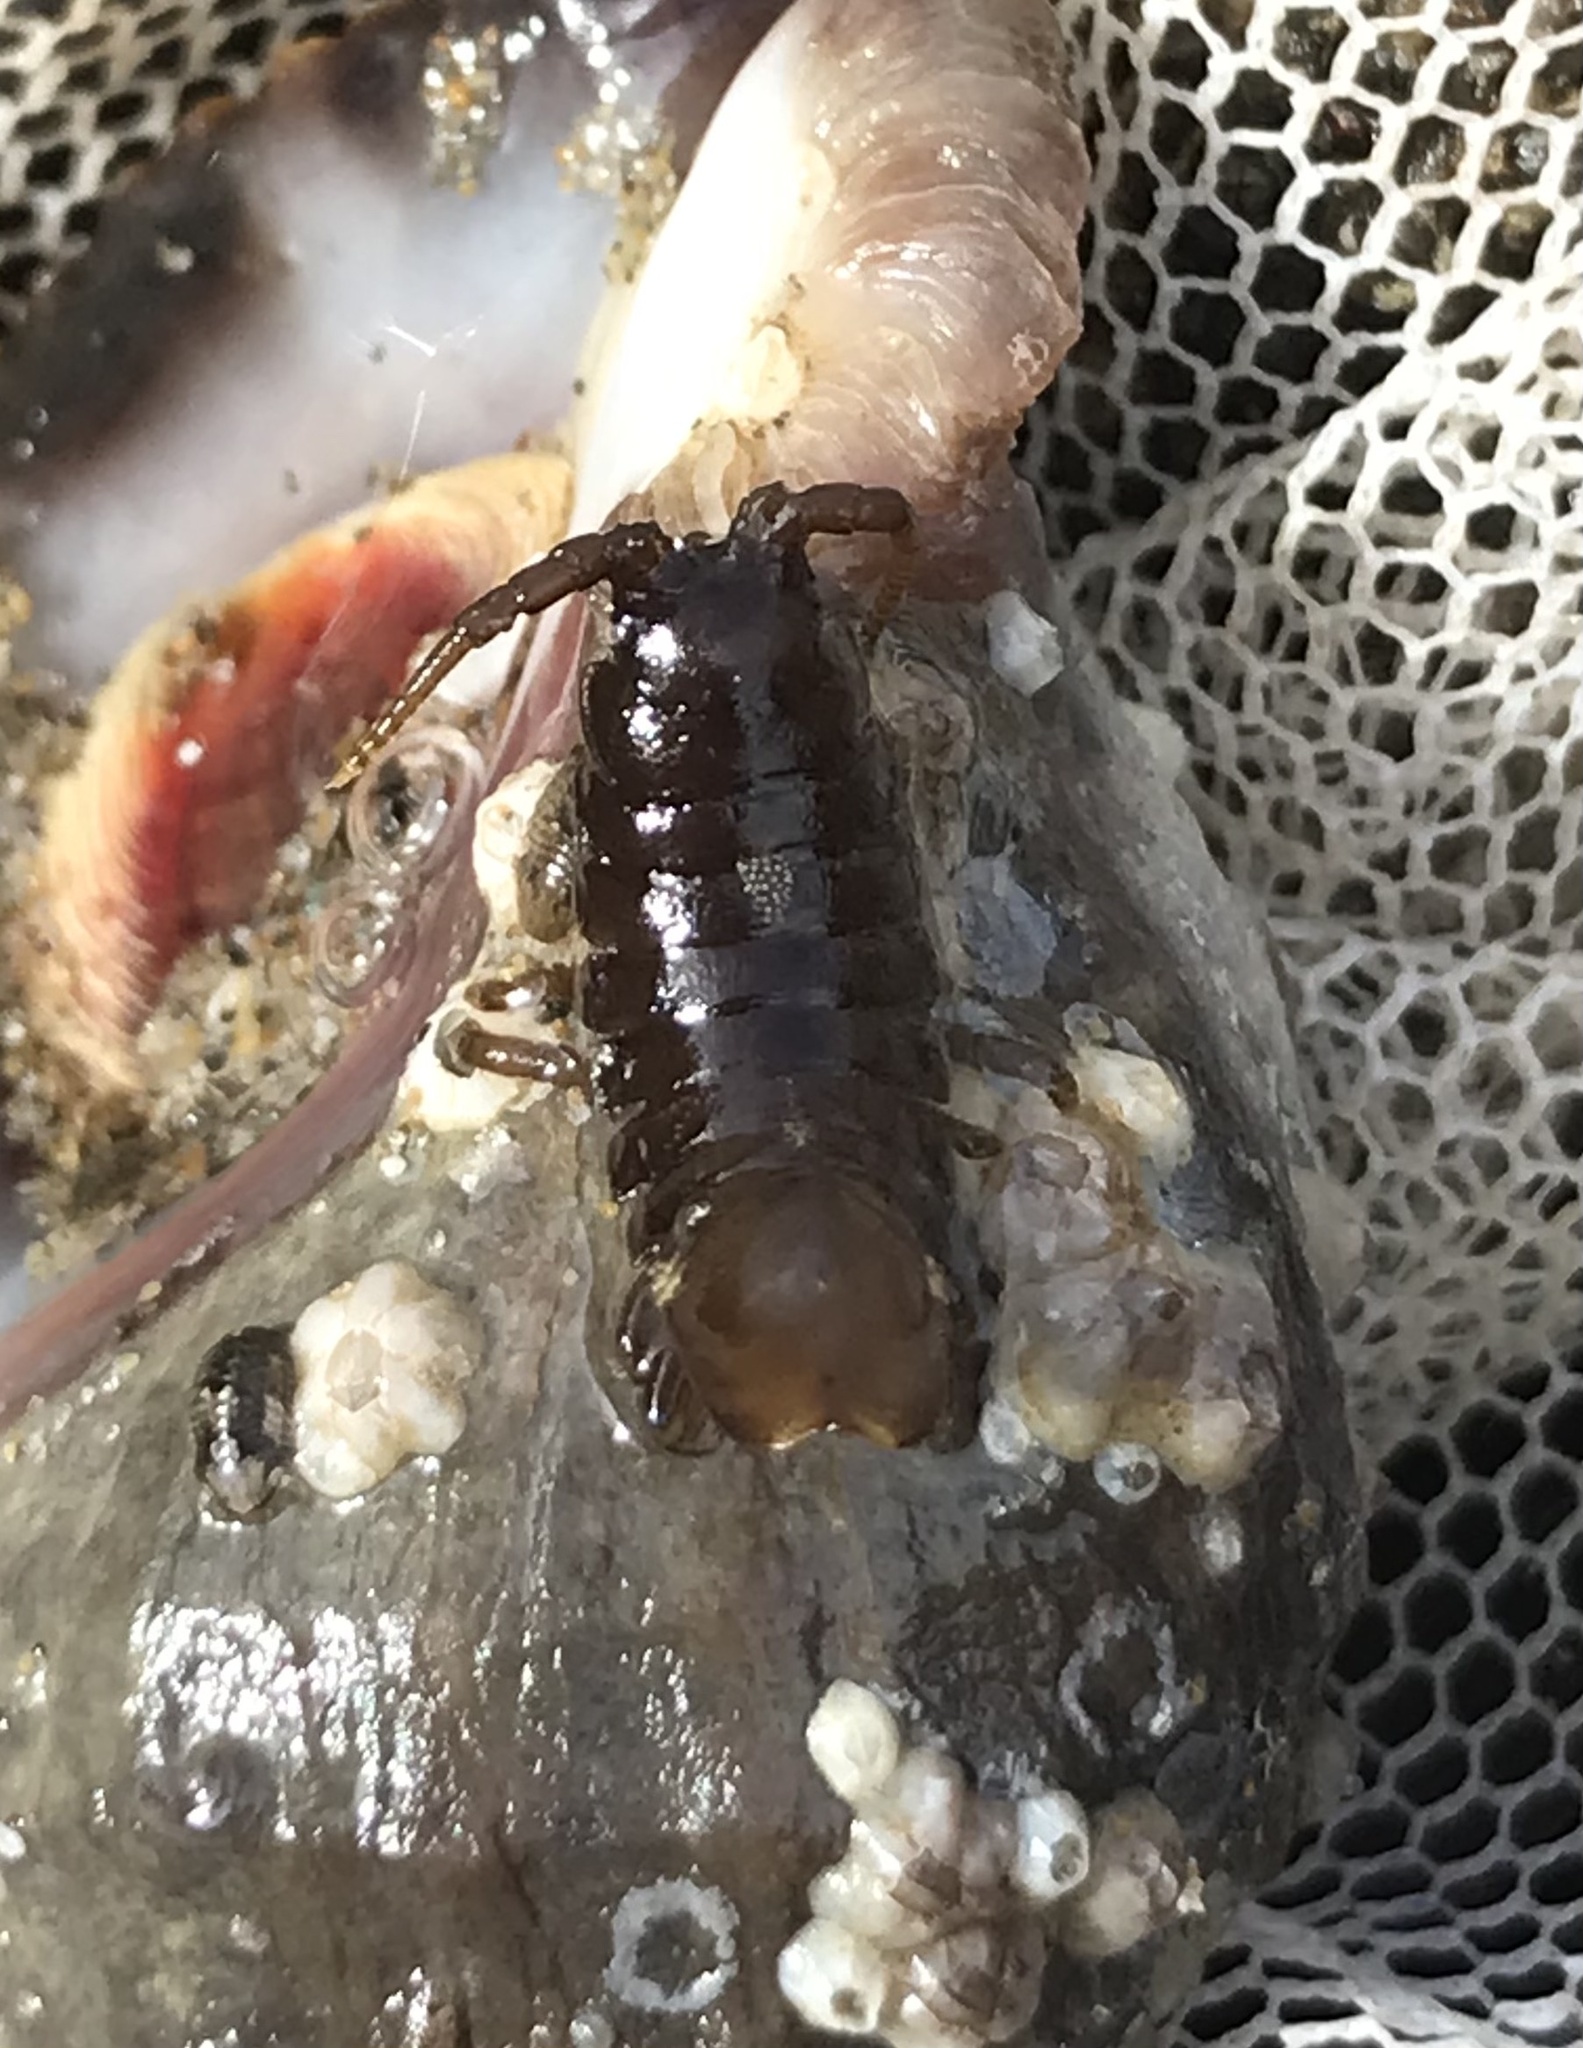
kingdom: Animalia
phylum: Arthropoda
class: Malacostraca
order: Isopoda
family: Idoteidae
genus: Pentidotea
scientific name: Pentidotea wosnesenskii
